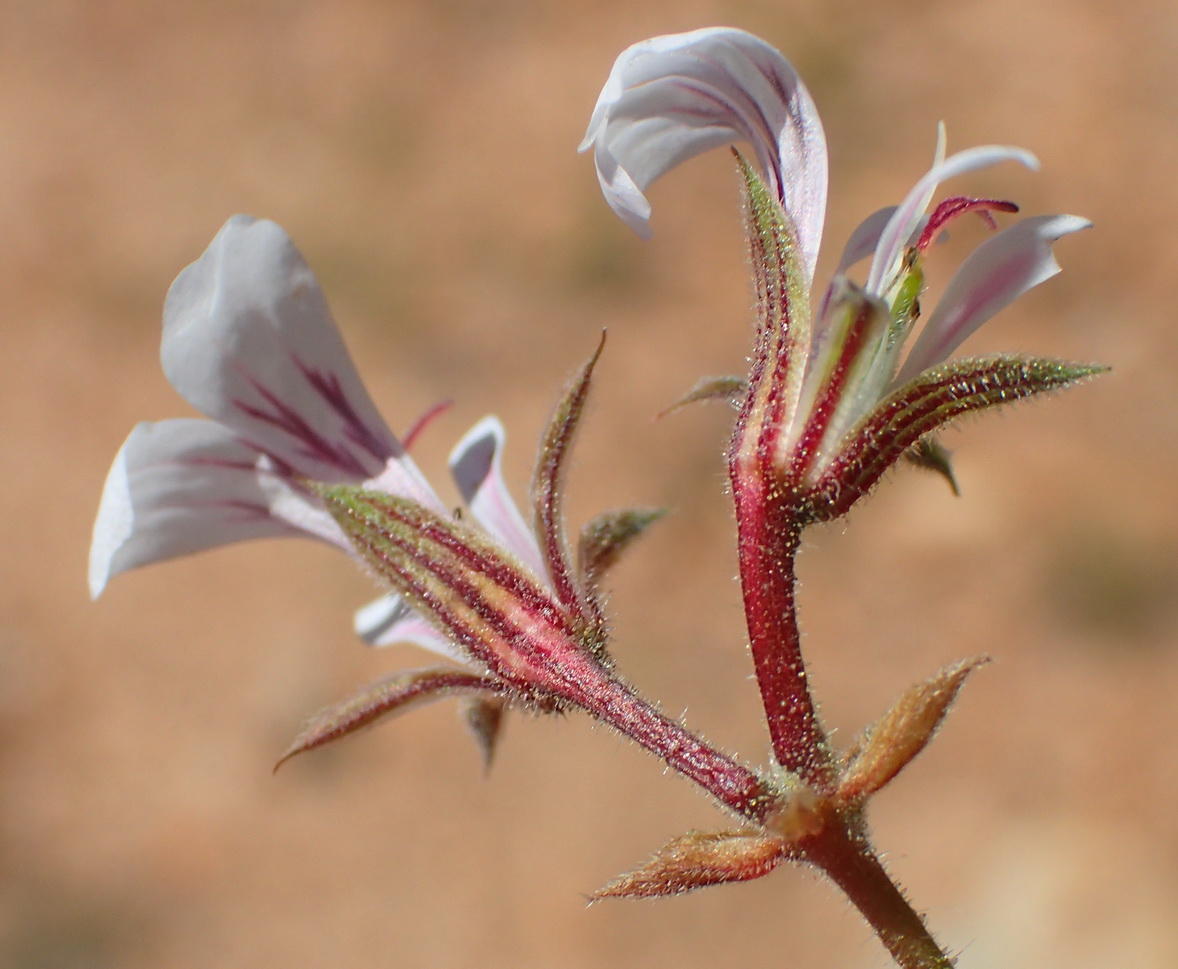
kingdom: Plantae
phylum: Tracheophyta
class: Magnoliopsida
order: Geraniales
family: Geraniaceae
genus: Pelargonium
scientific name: Pelargonium candicans
